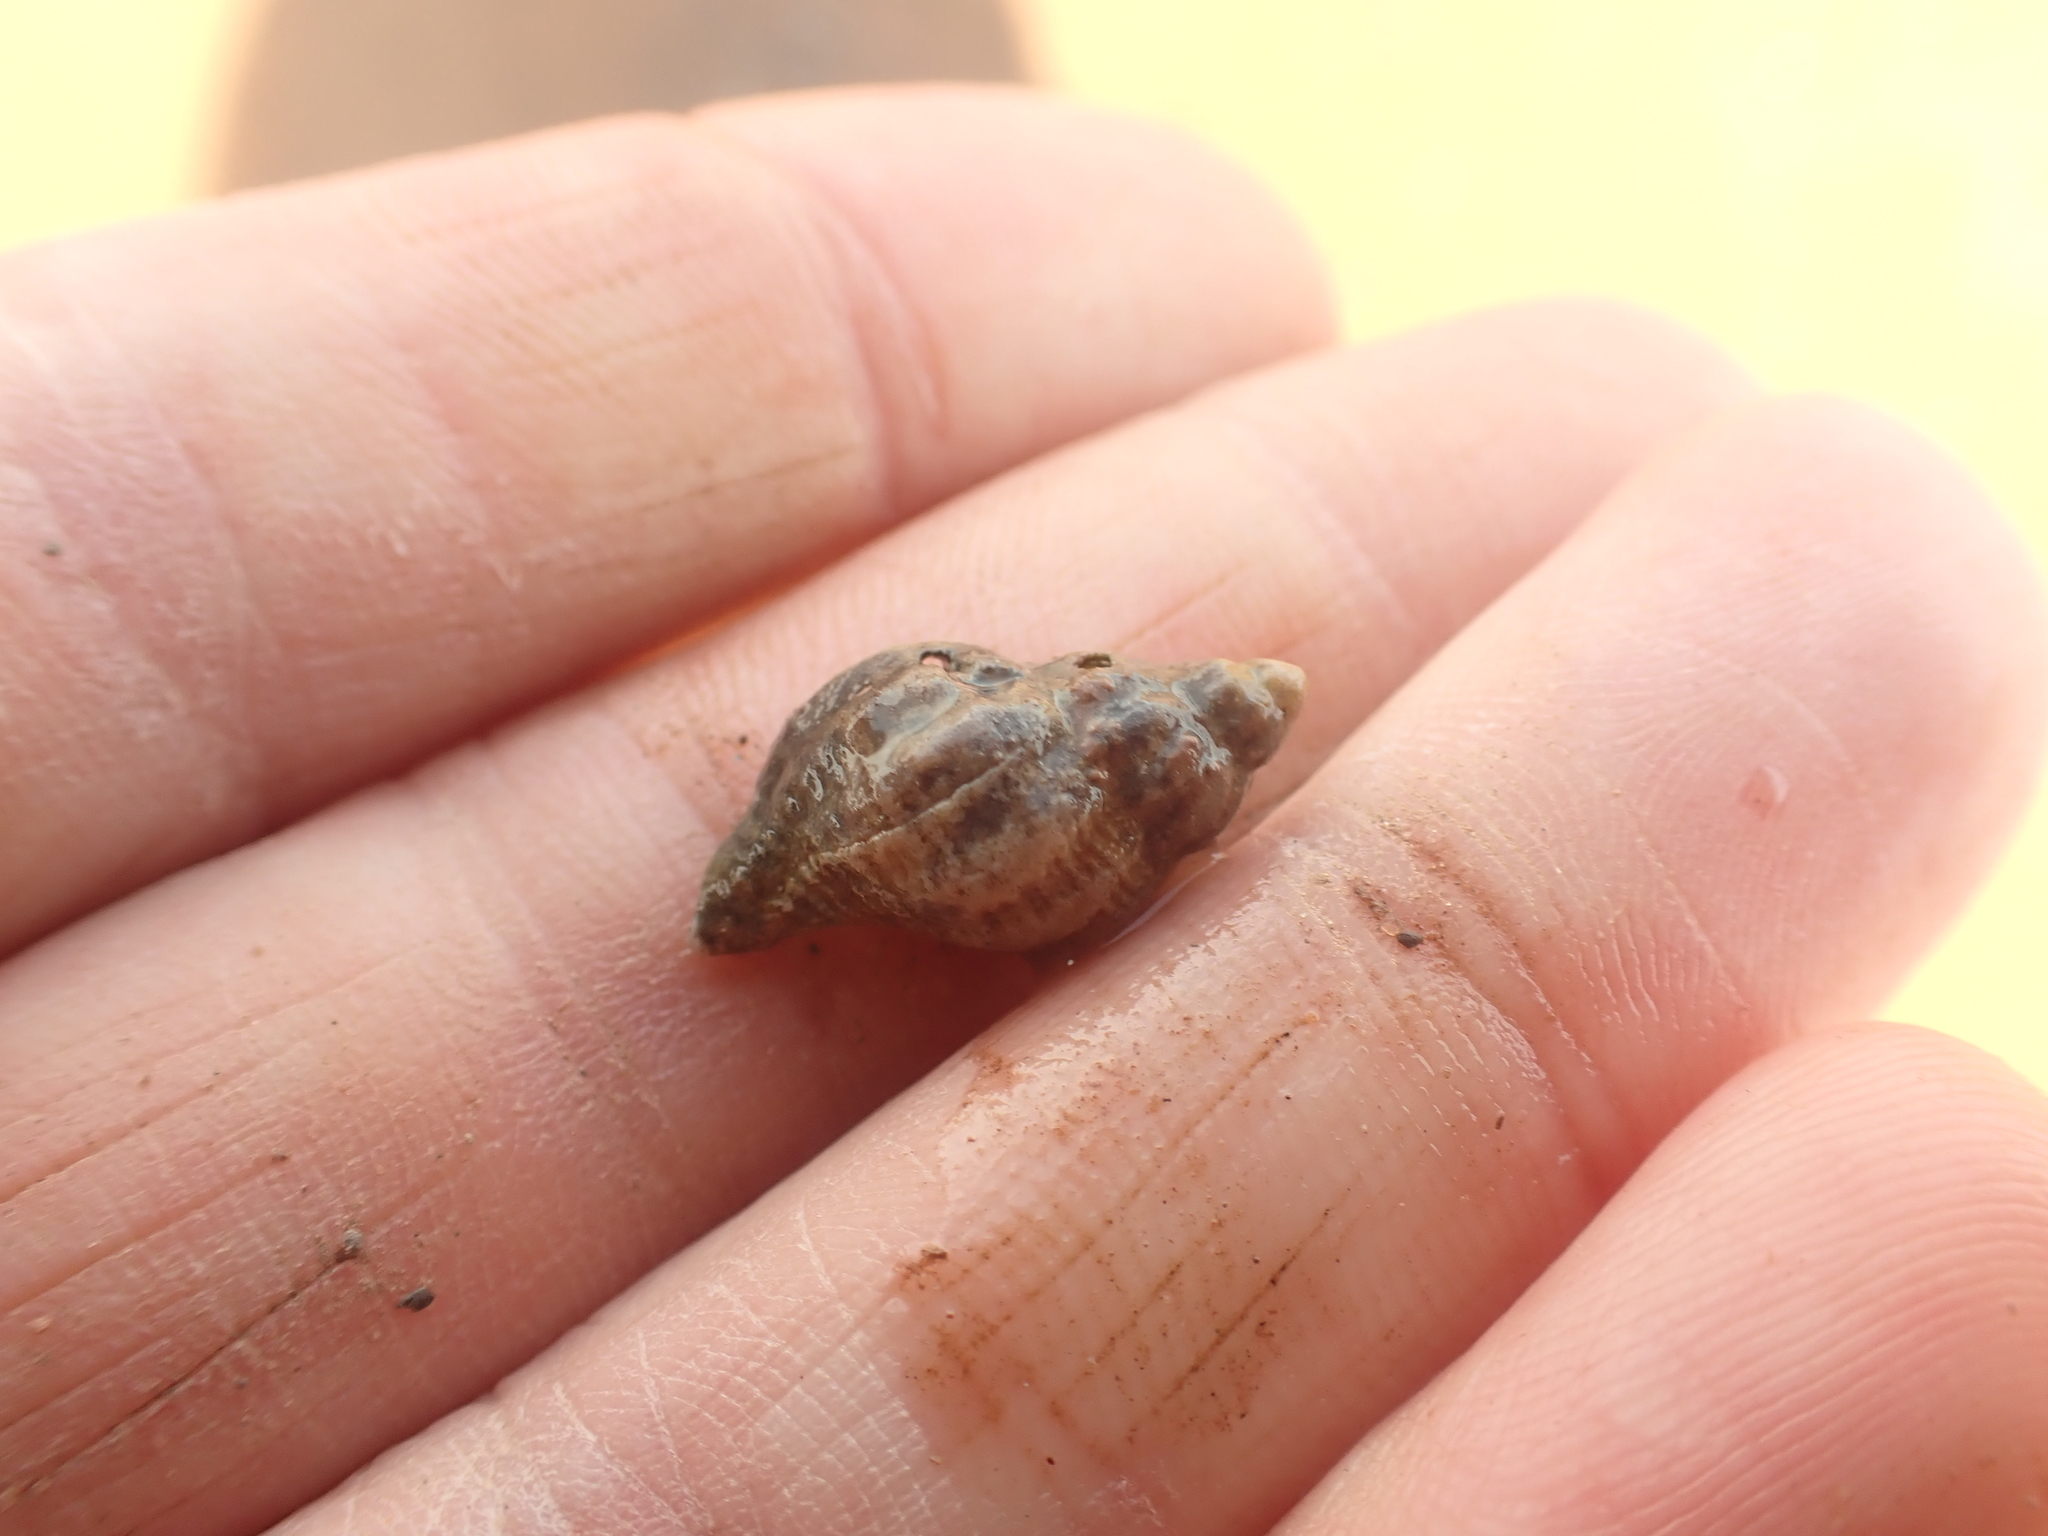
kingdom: Animalia
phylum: Mollusca
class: Gastropoda
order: Neogastropoda
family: Muricidae
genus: Urosalpinx
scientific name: Urosalpinx cinerea
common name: American sting winkle
